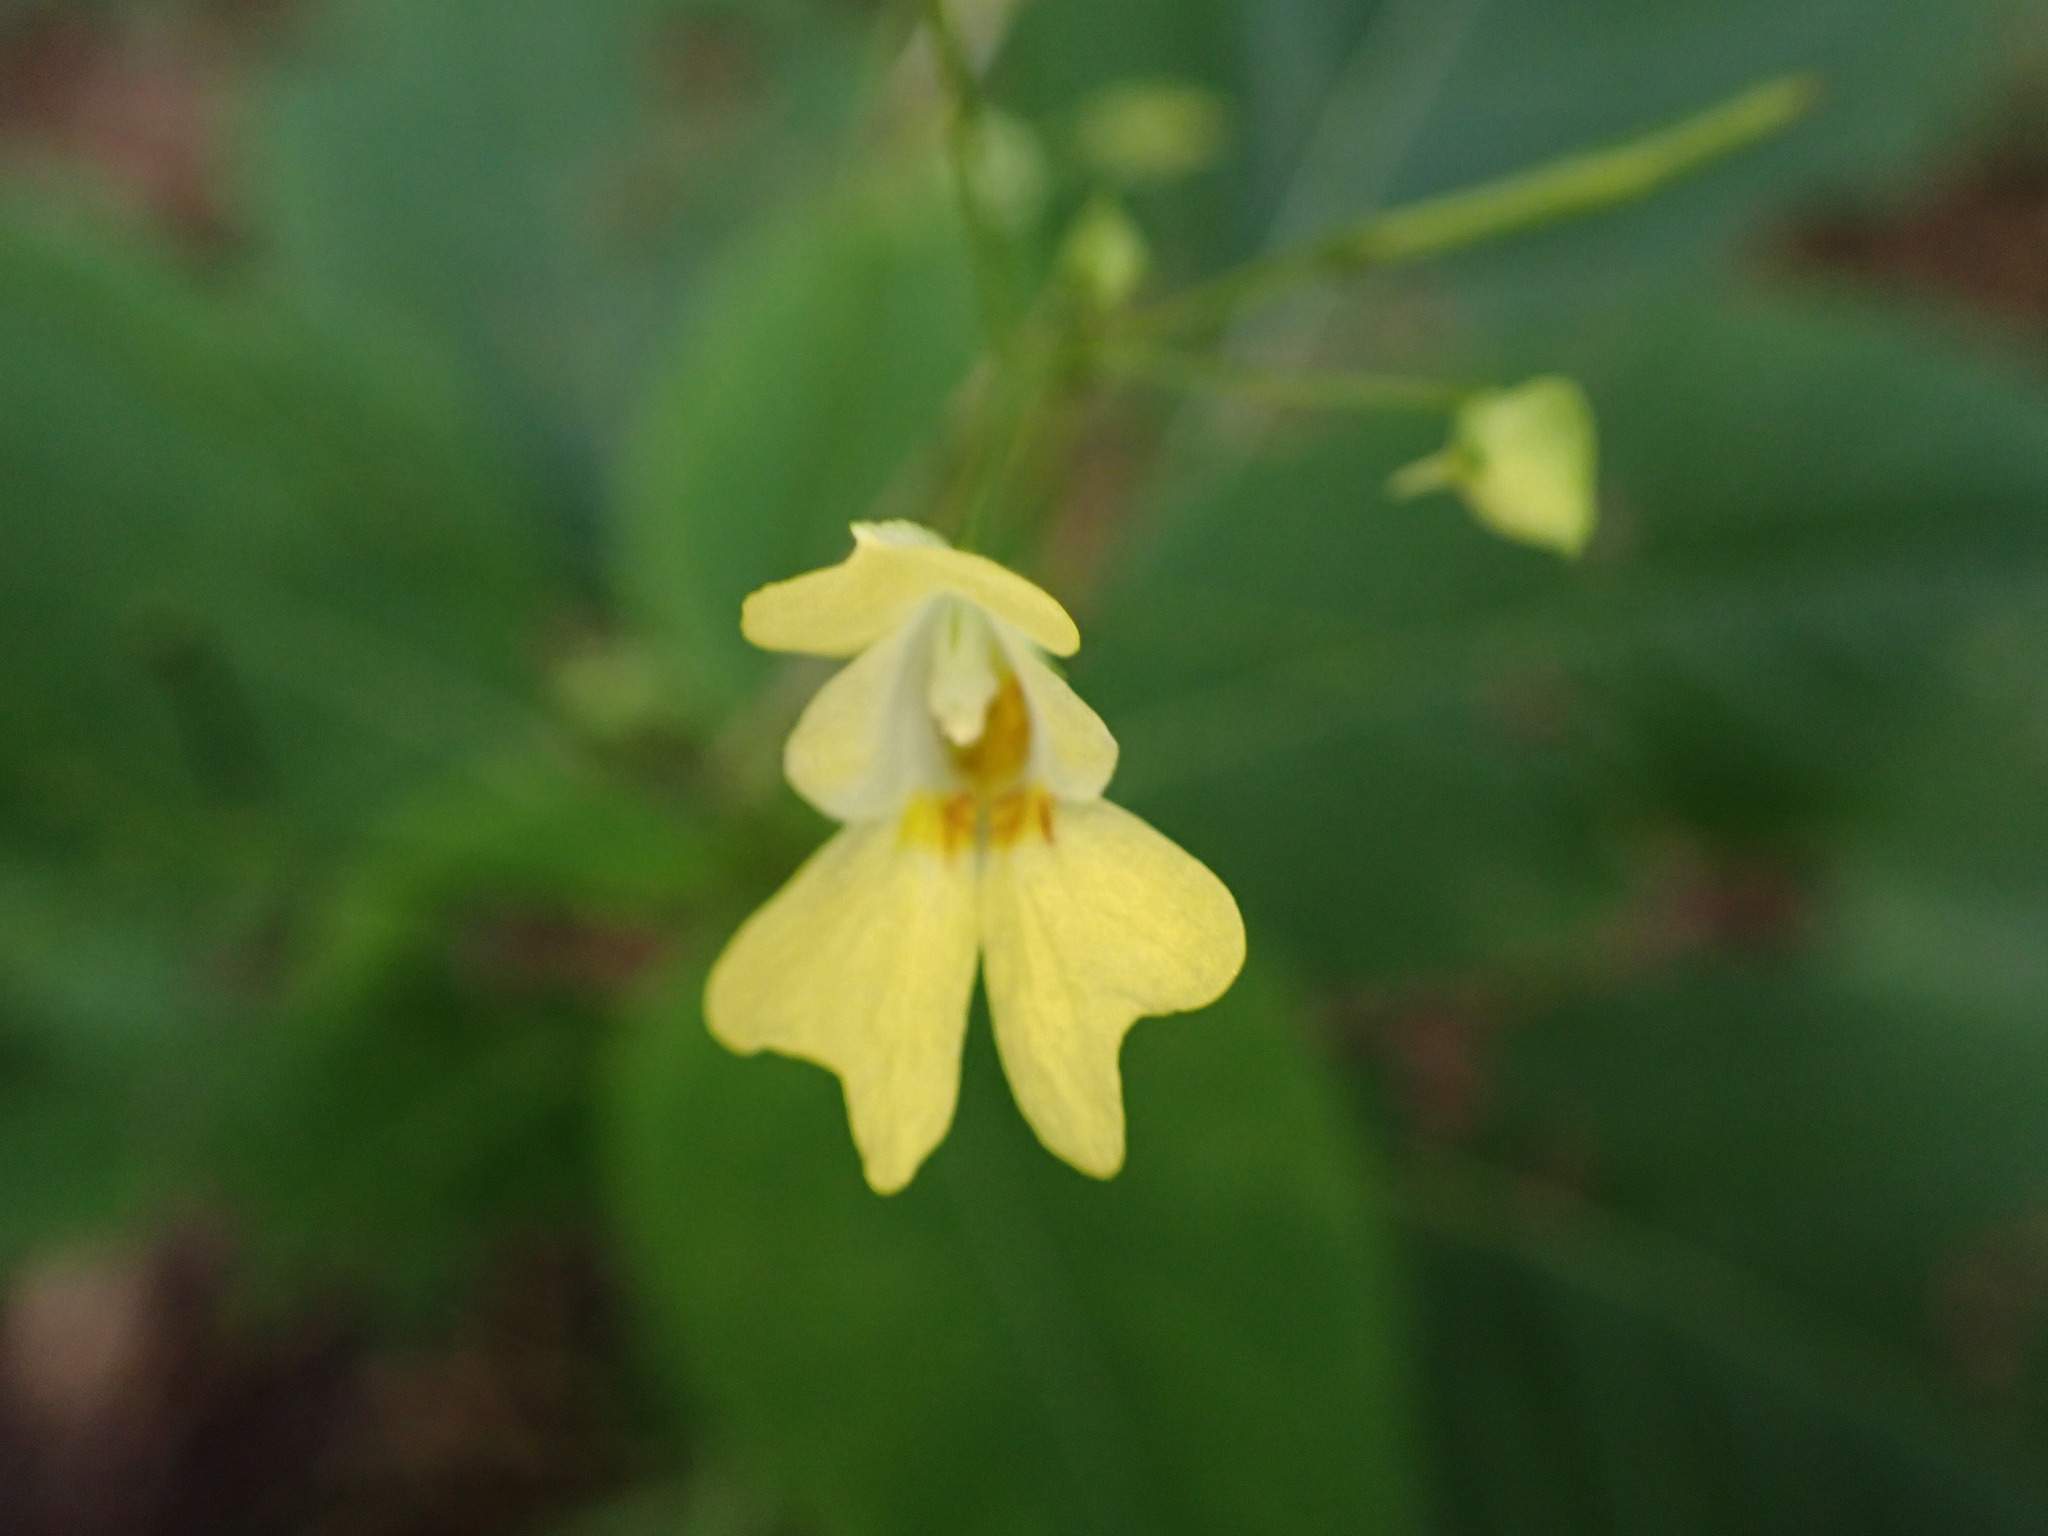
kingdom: Plantae
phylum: Tracheophyta
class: Magnoliopsida
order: Ericales
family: Balsaminaceae
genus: Impatiens
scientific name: Impatiens parviflora
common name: Small balsam
